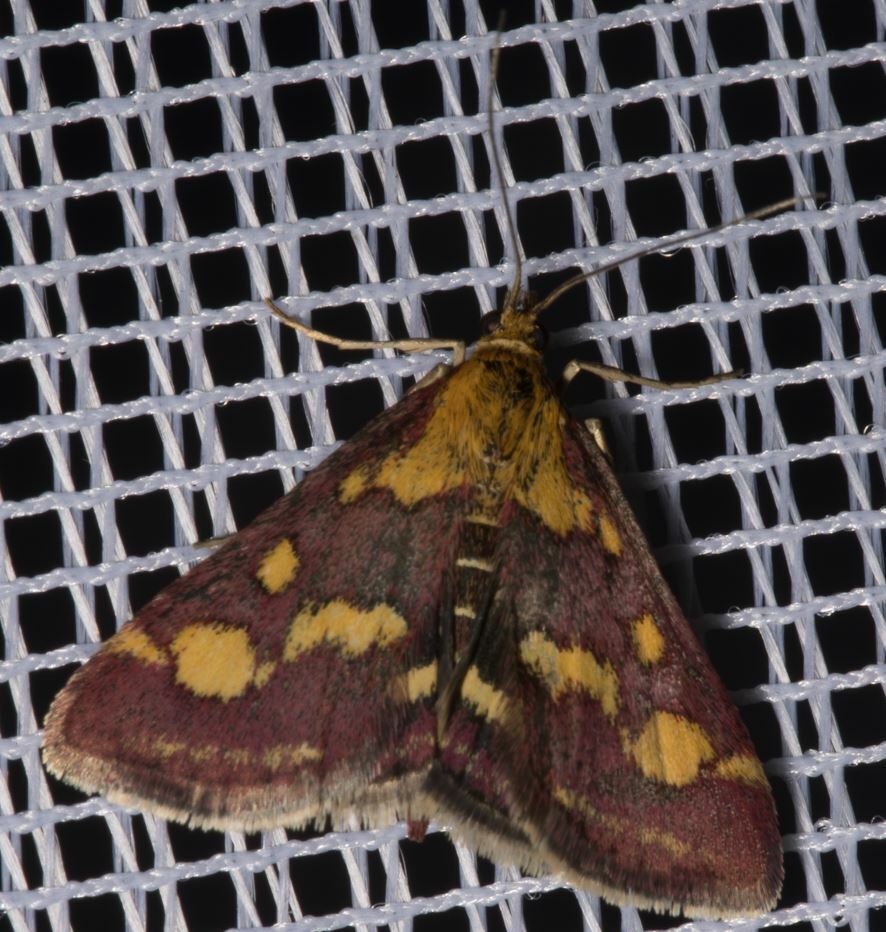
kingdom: Animalia
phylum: Arthropoda
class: Insecta
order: Lepidoptera
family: Crambidae
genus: Pyrausta
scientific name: Pyrausta purpuralis
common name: Common purple & gold
